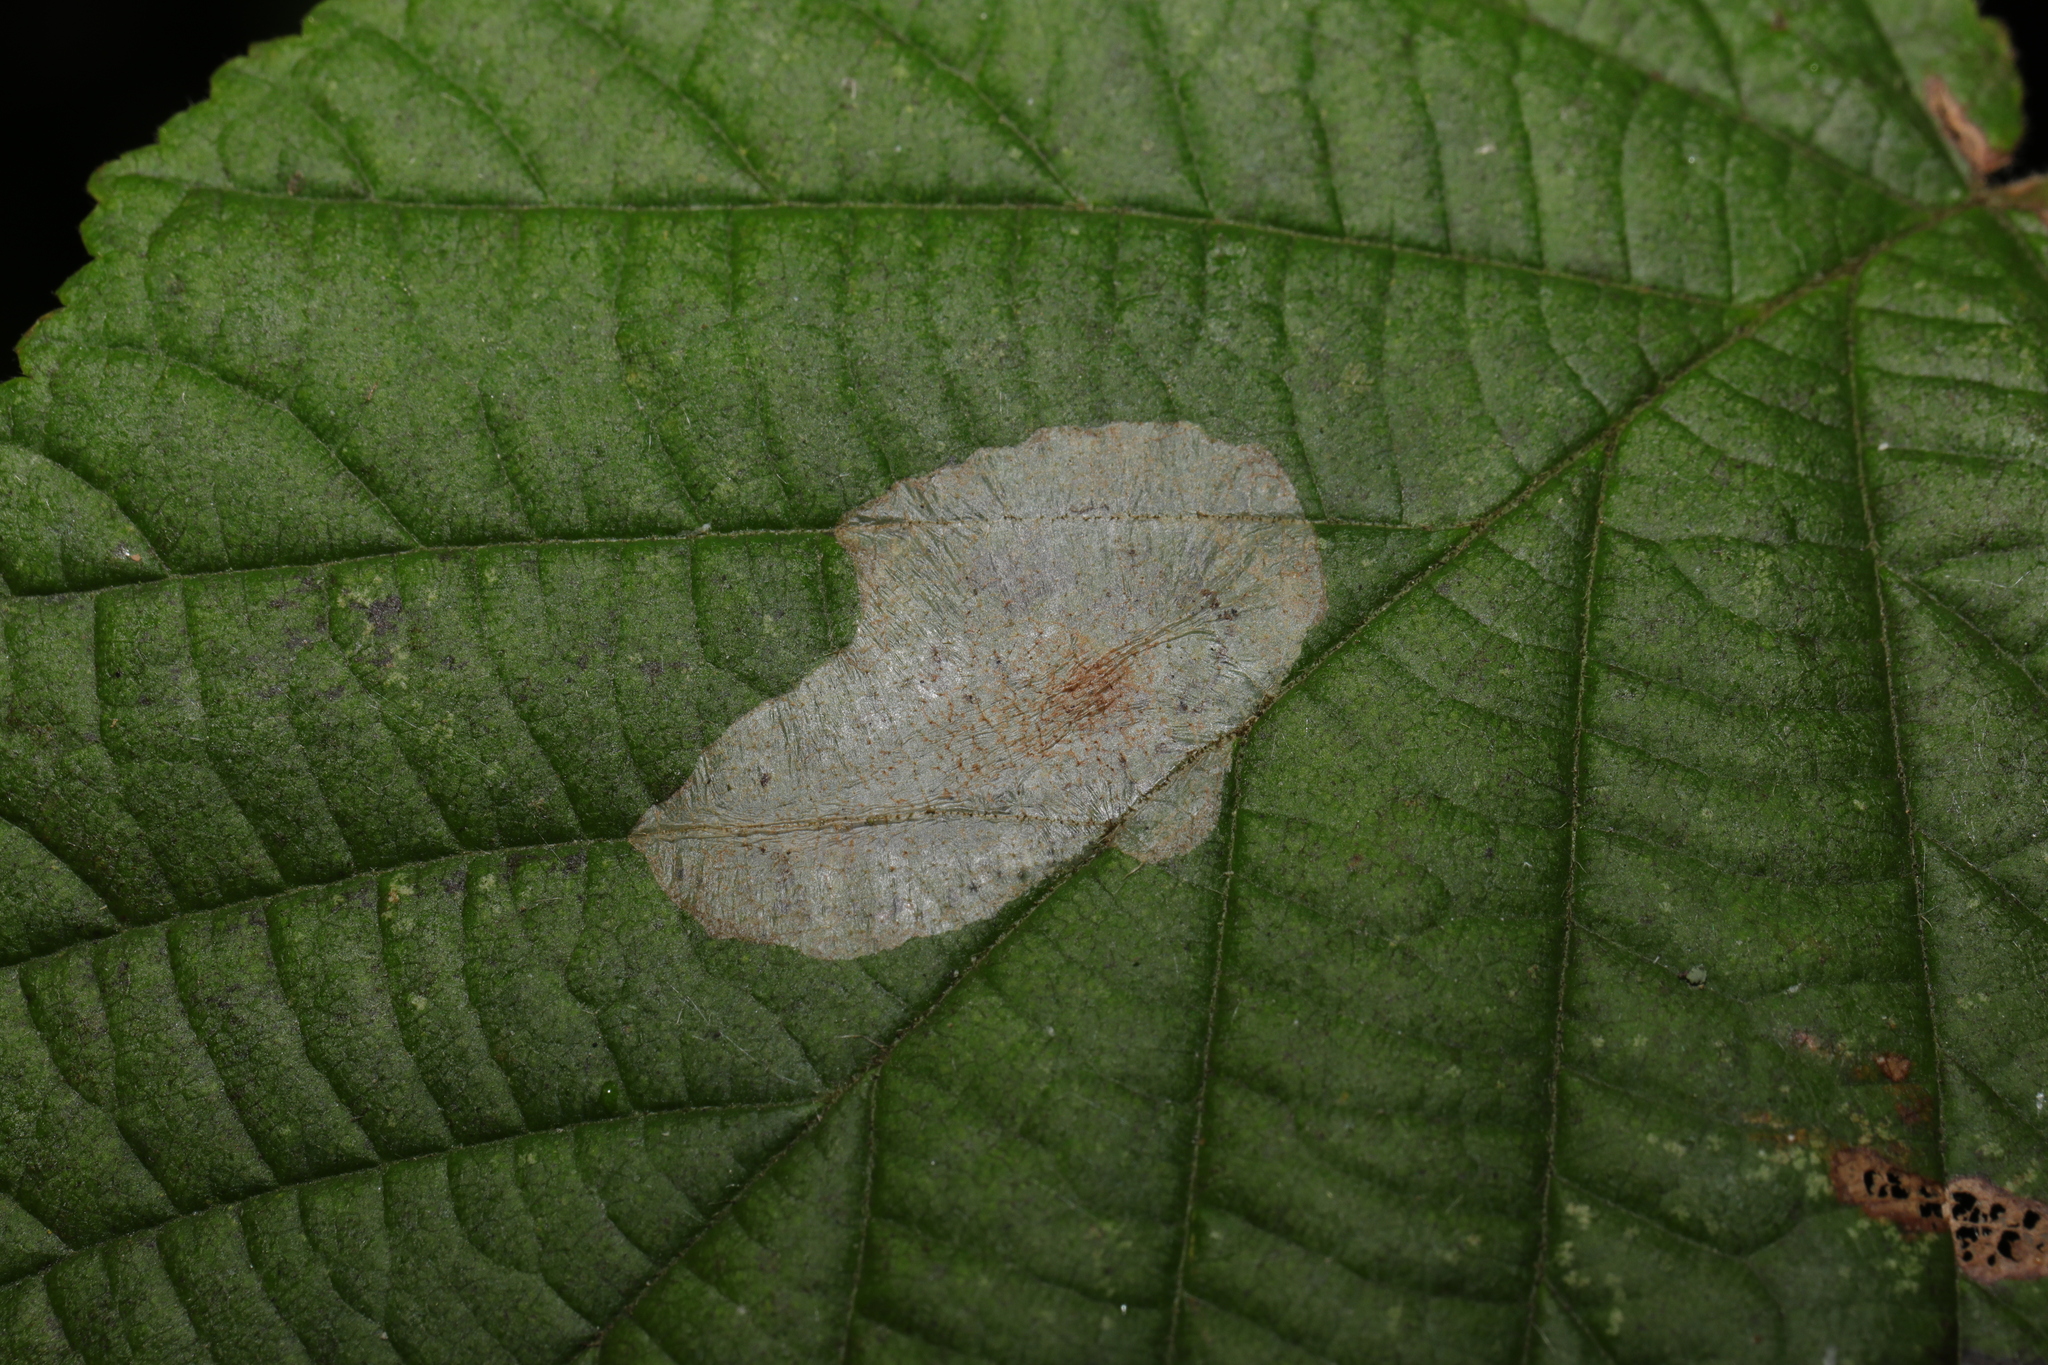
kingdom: Animalia
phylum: Arthropoda
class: Insecta
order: Lepidoptera
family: Gracillariidae
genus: Phyllonorycter
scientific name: Phyllonorycter coryli
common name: Nut-leaf blister moth
